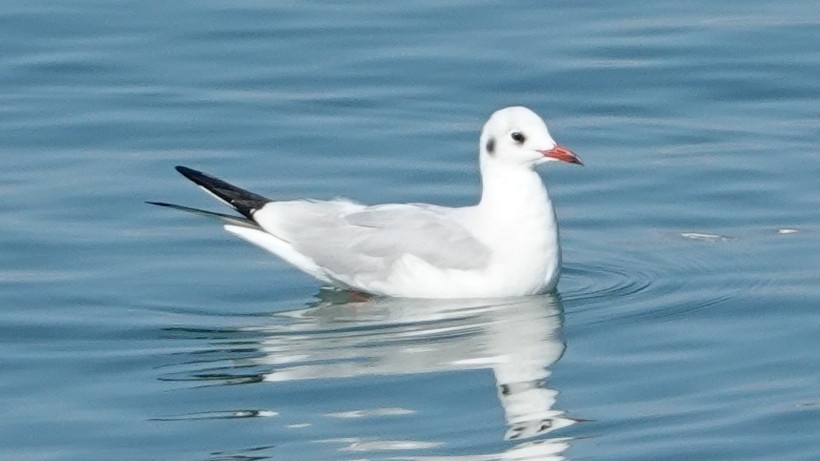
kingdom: Animalia
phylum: Chordata
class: Aves
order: Charadriiformes
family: Laridae
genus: Chroicocephalus
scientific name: Chroicocephalus ridibundus
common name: Black-headed gull
